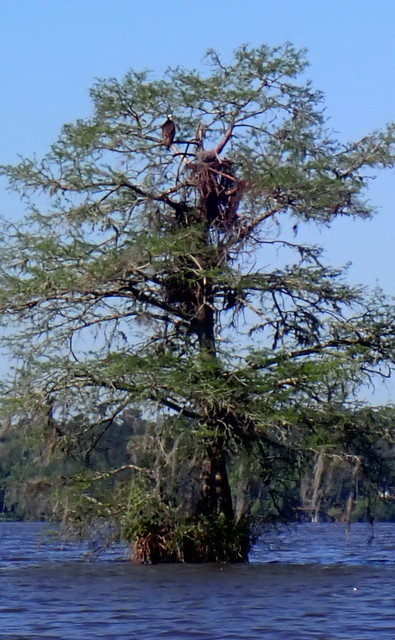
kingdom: Animalia
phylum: Chordata
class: Aves
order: Accipitriformes
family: Pandionidae
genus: Pandion
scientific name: Pandion haliaetus
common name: Osprey
